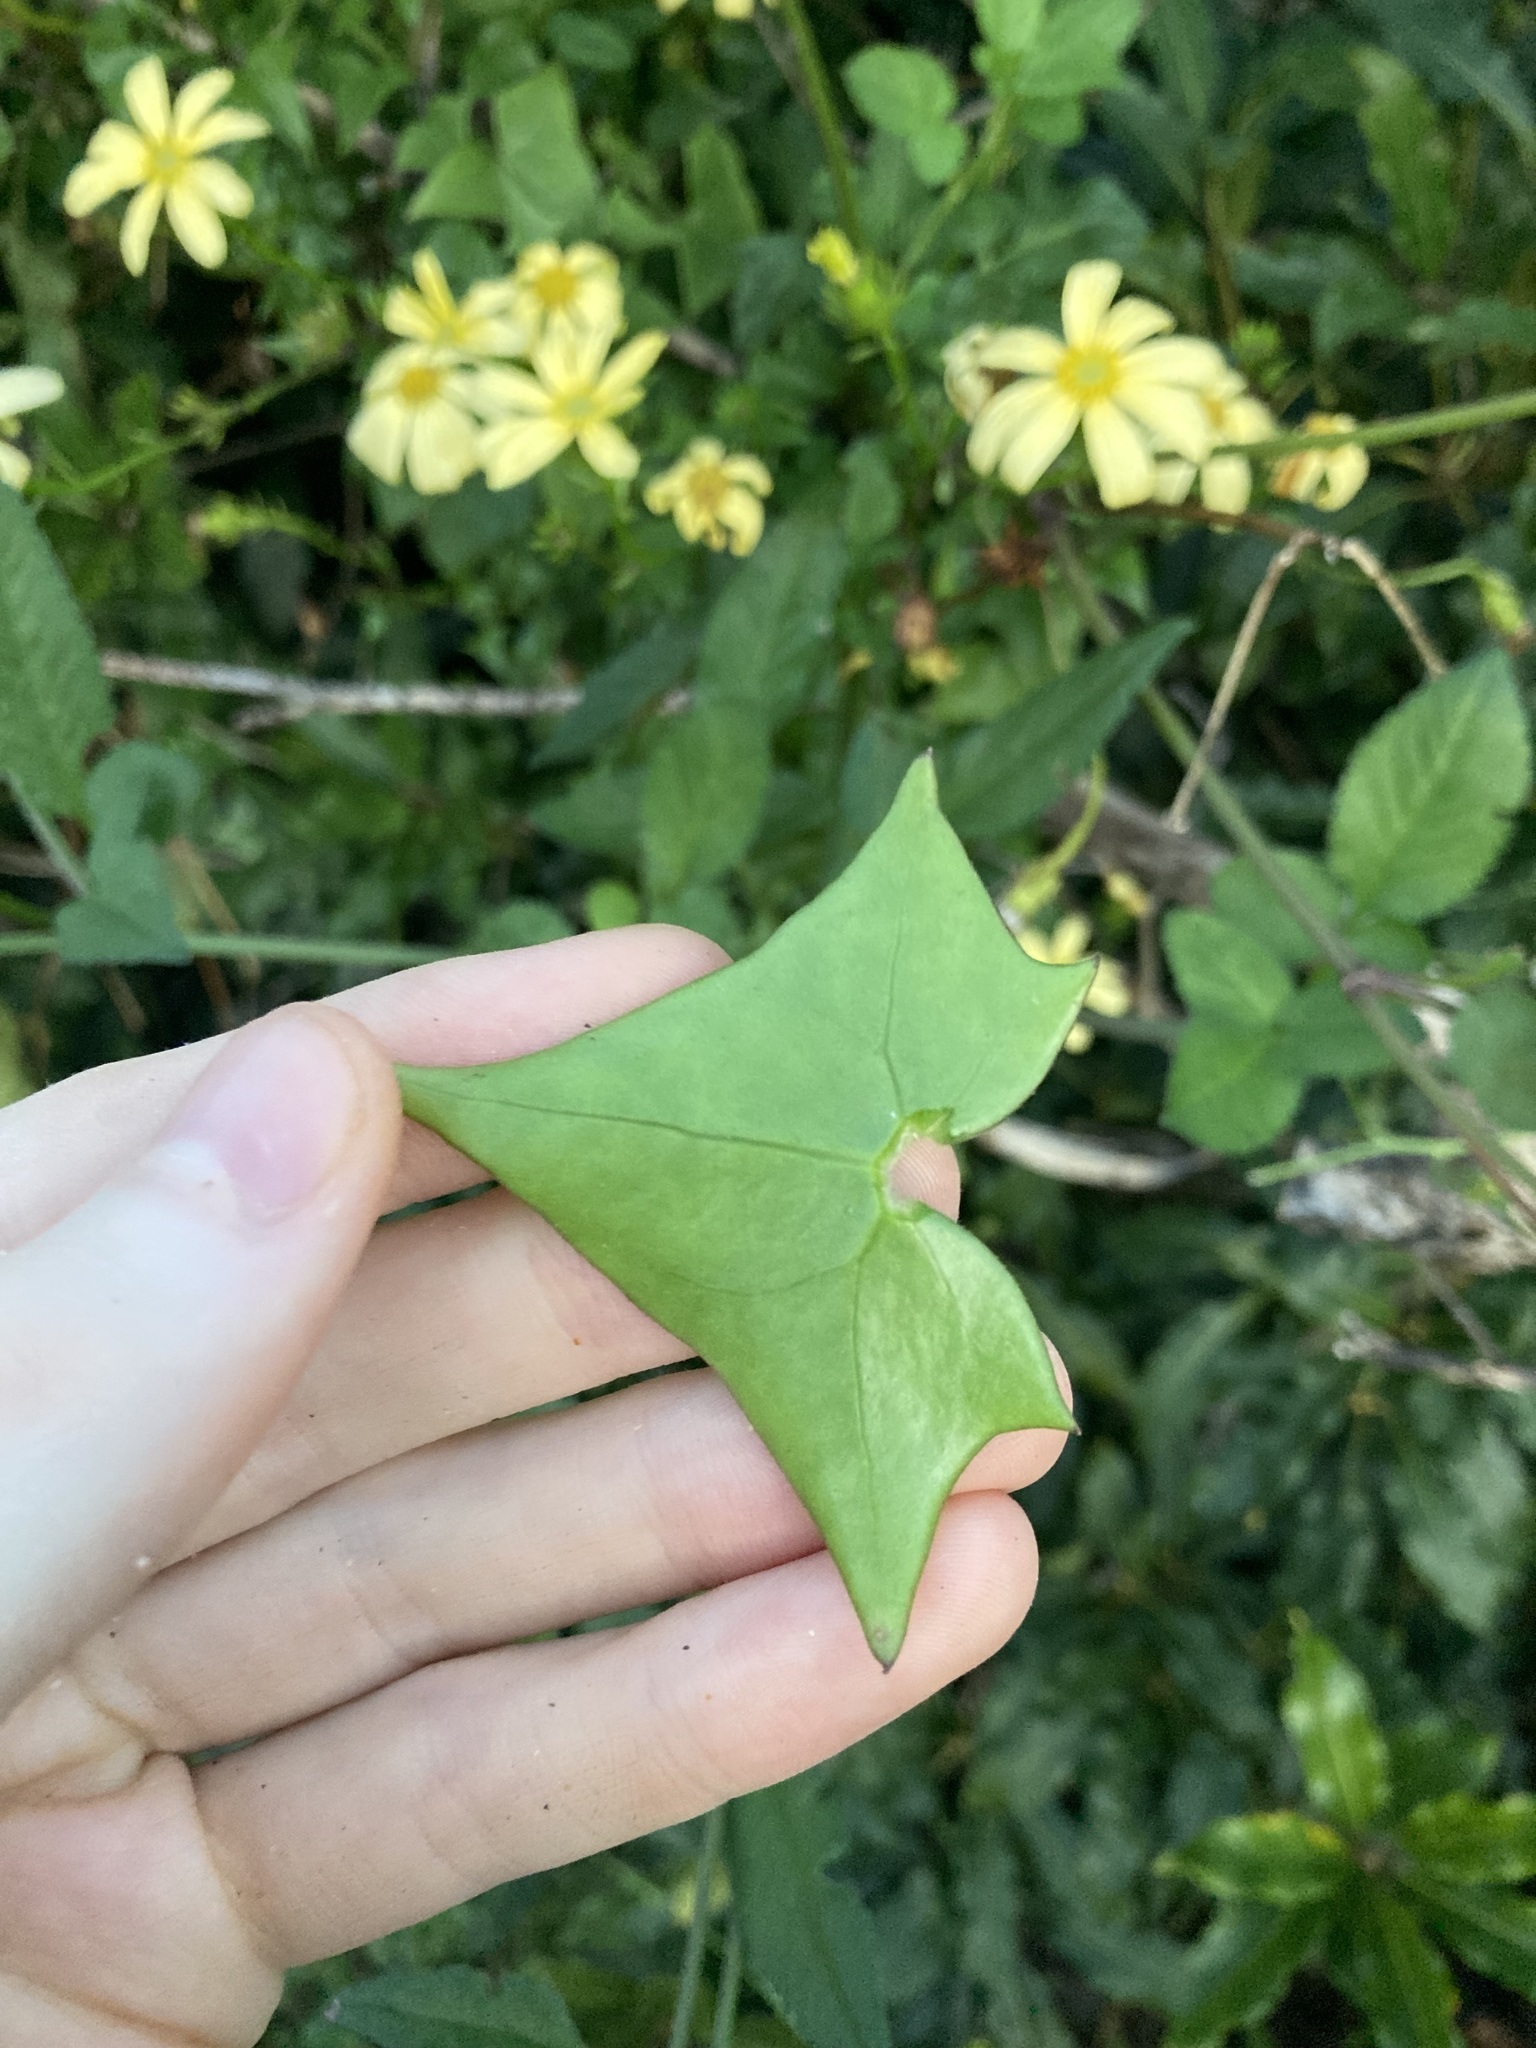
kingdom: Plantae
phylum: Tracheophyta
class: Magnoliopsida
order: Asterales
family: Asteraceae
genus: Senecio
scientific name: Senecio macroglossus
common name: Natal-ivy
